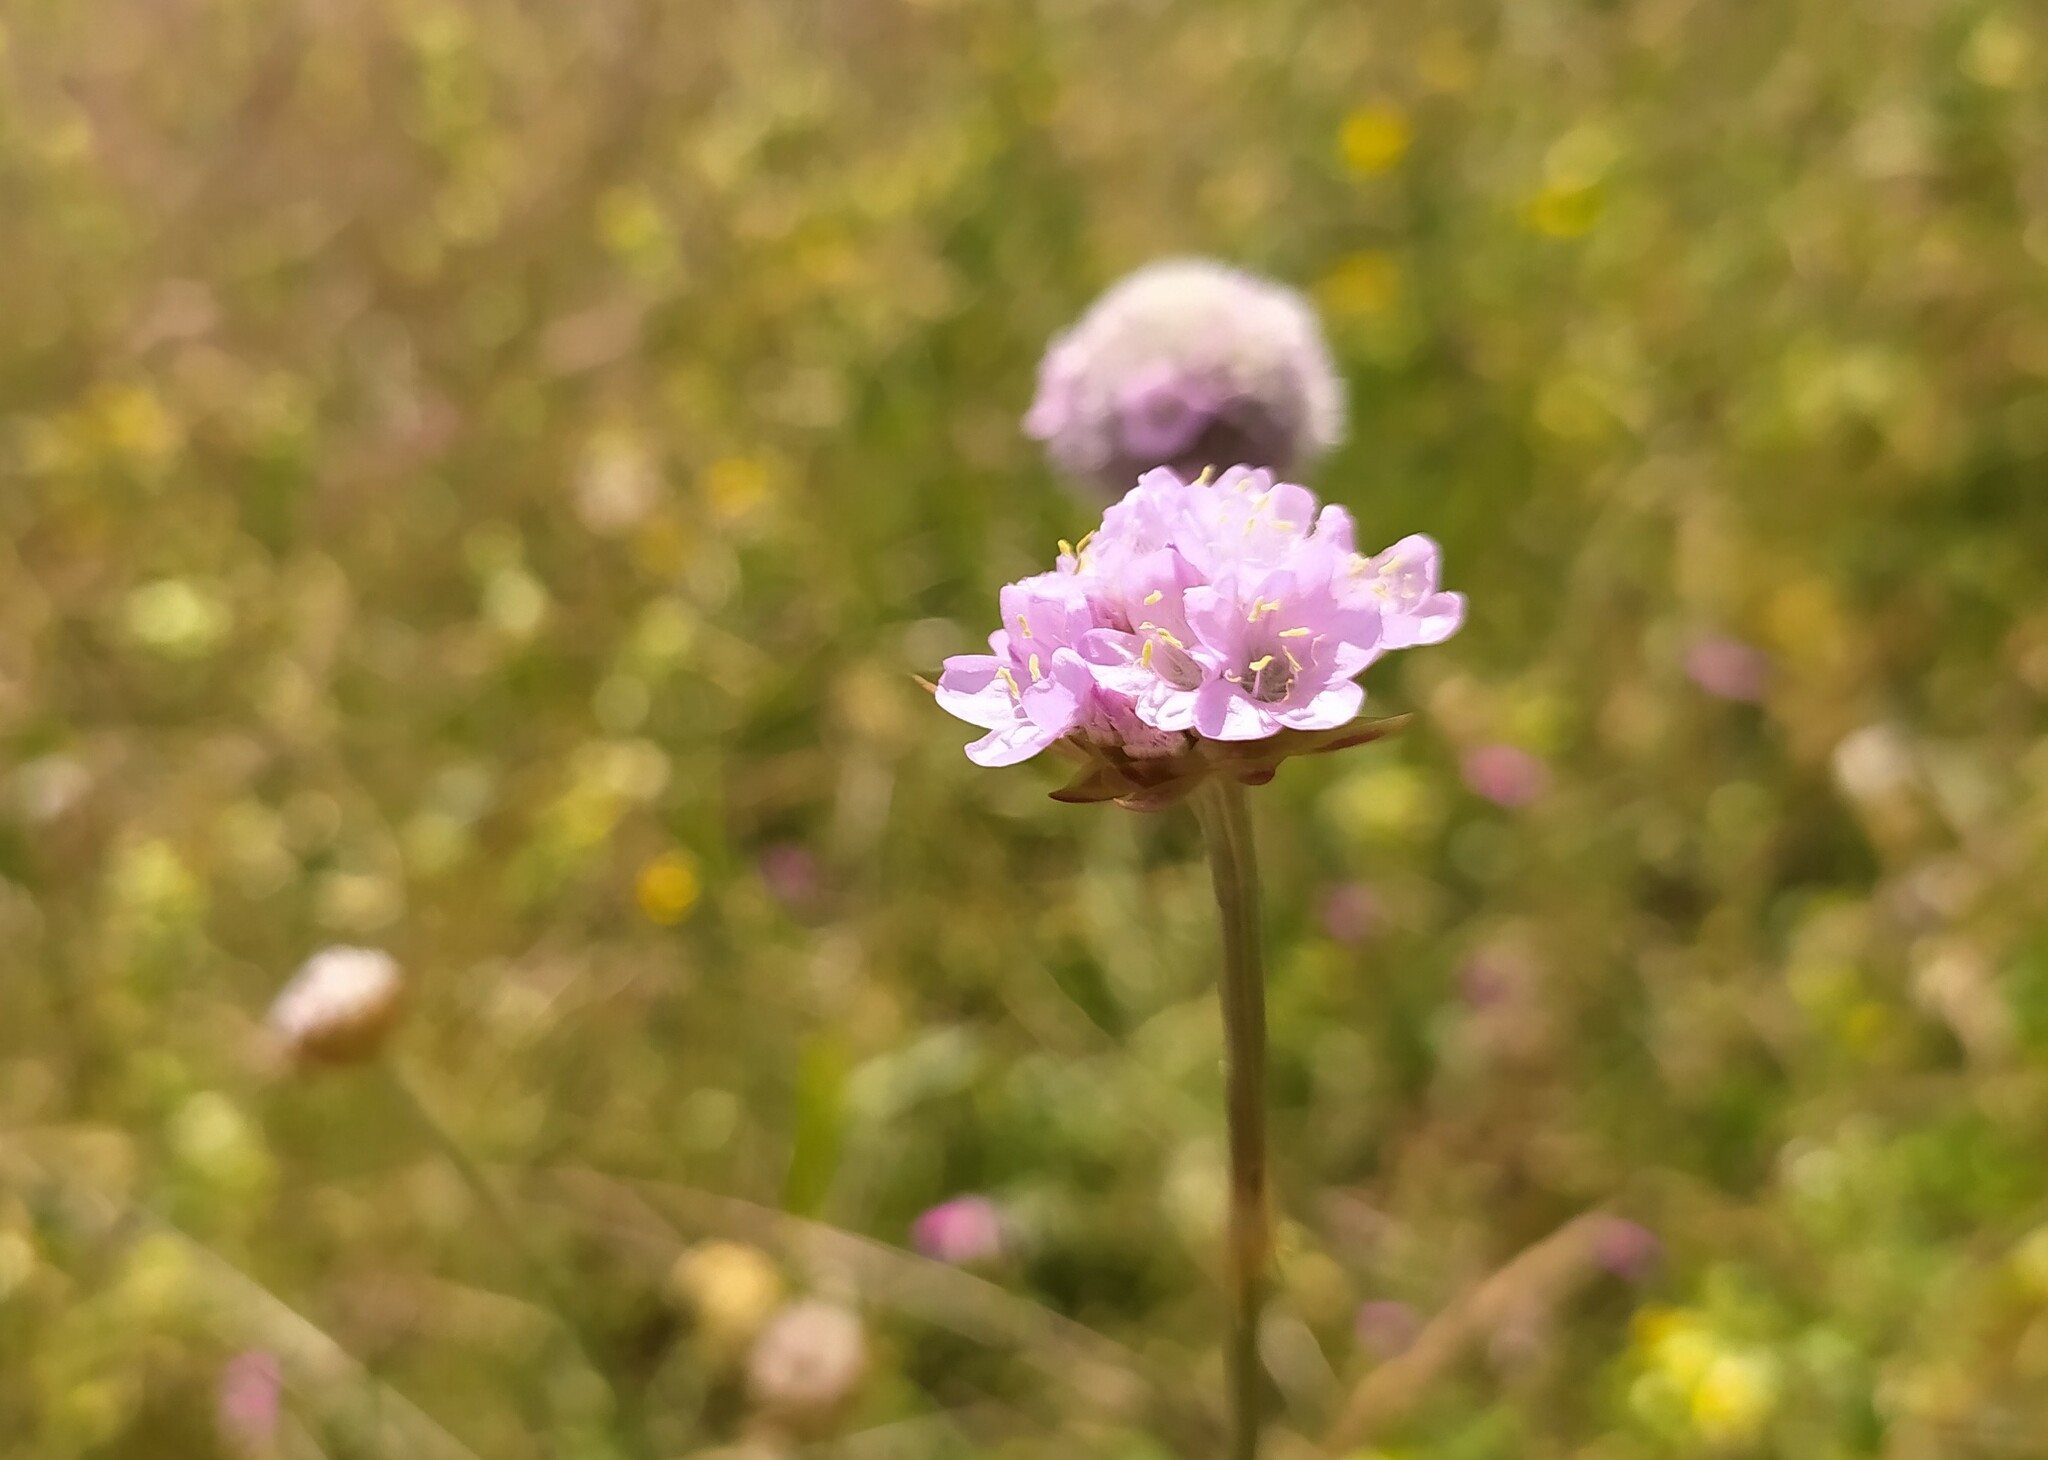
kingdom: Plantae
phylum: Tracheophyta
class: Magnoliopsida
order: Caryophyllales
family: Plumbaginaceae
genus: Armeria
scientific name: Armeria maritima
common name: Thrift
